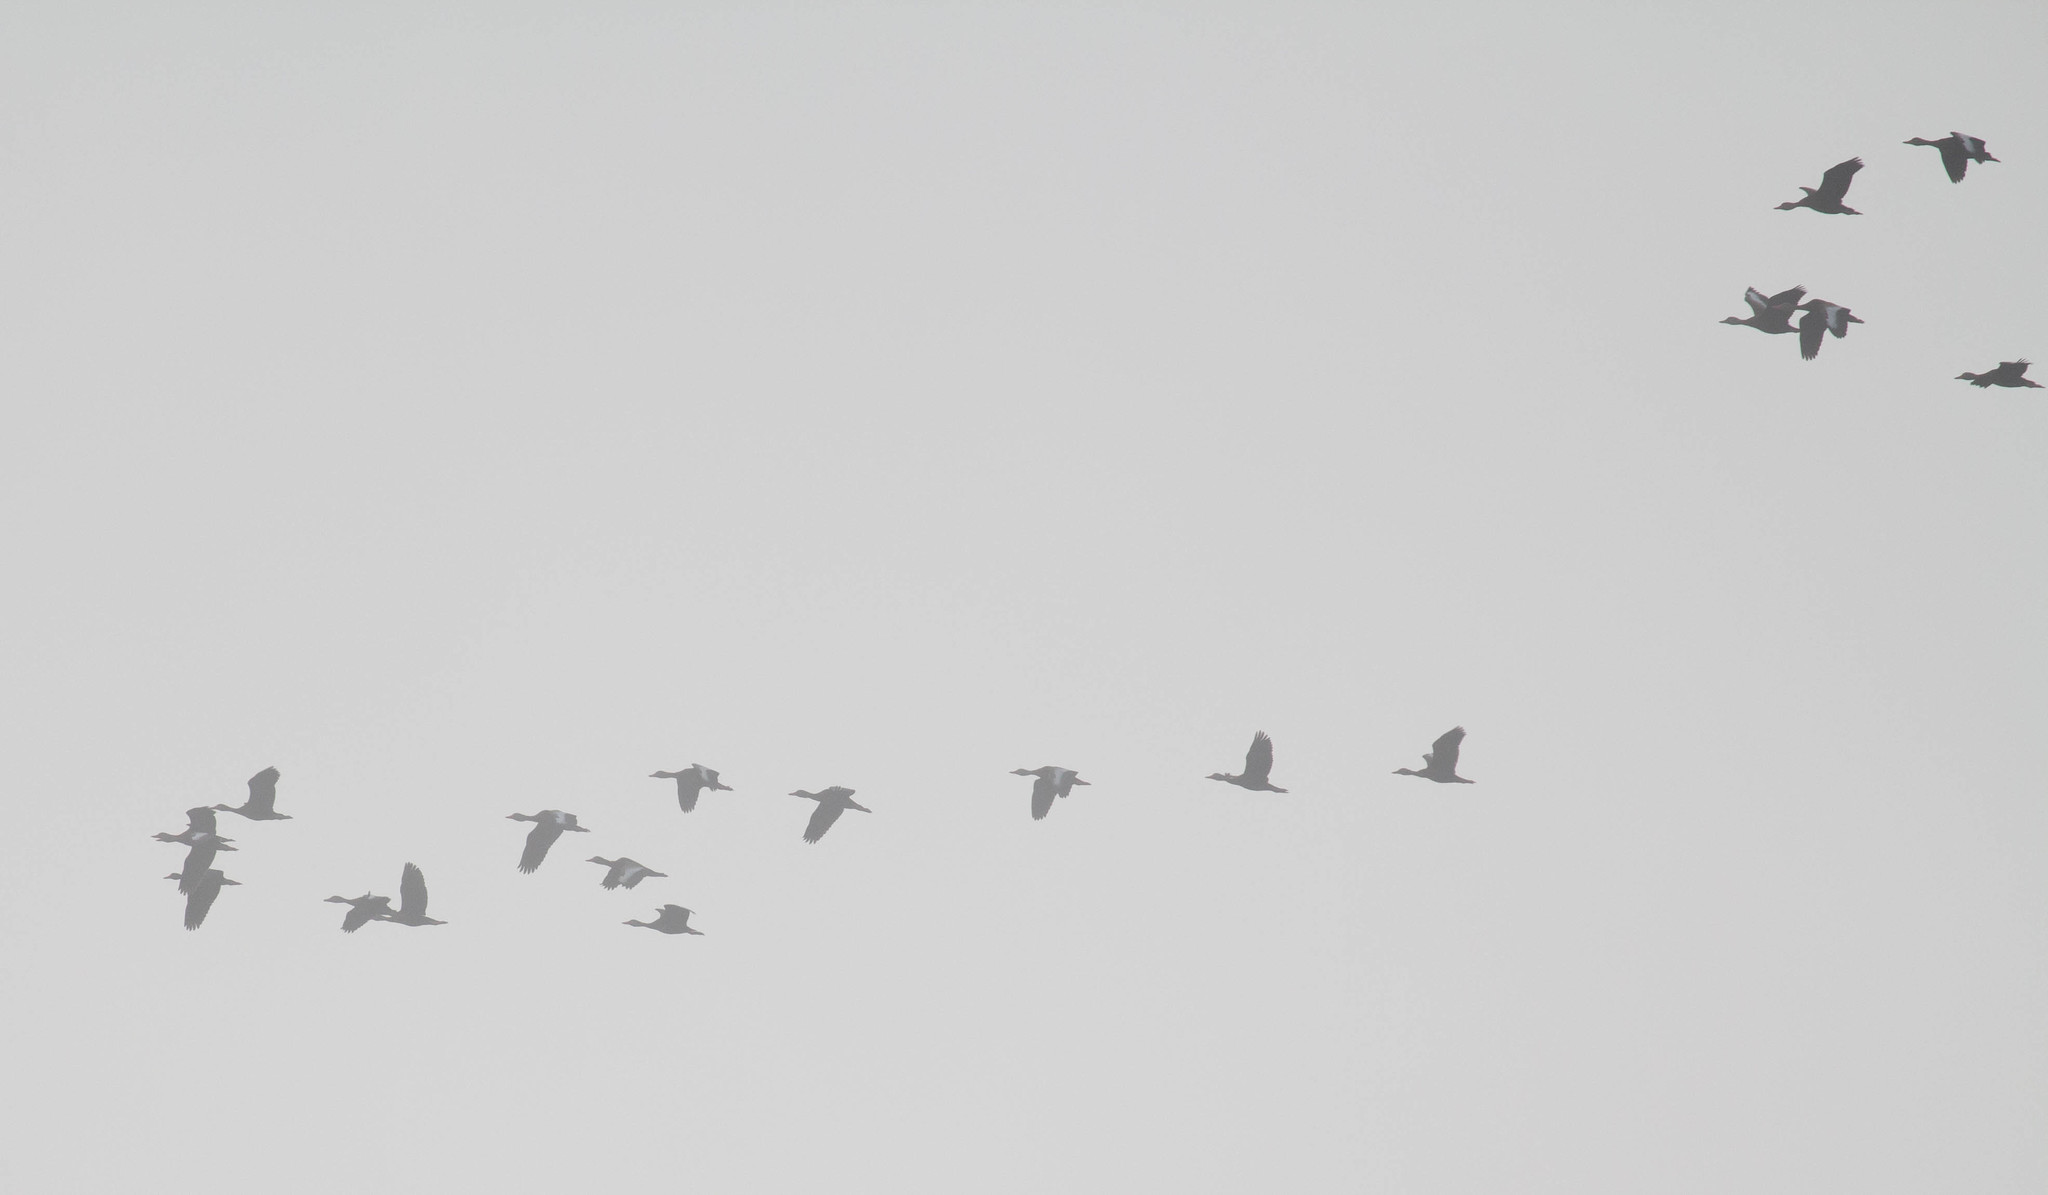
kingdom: Animalia
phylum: Chordata
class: Aves
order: Anseriformes
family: Anatidae
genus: Dendrocygna
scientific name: Dendrocygna autumnalis
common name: Black-bellied whistling duck
